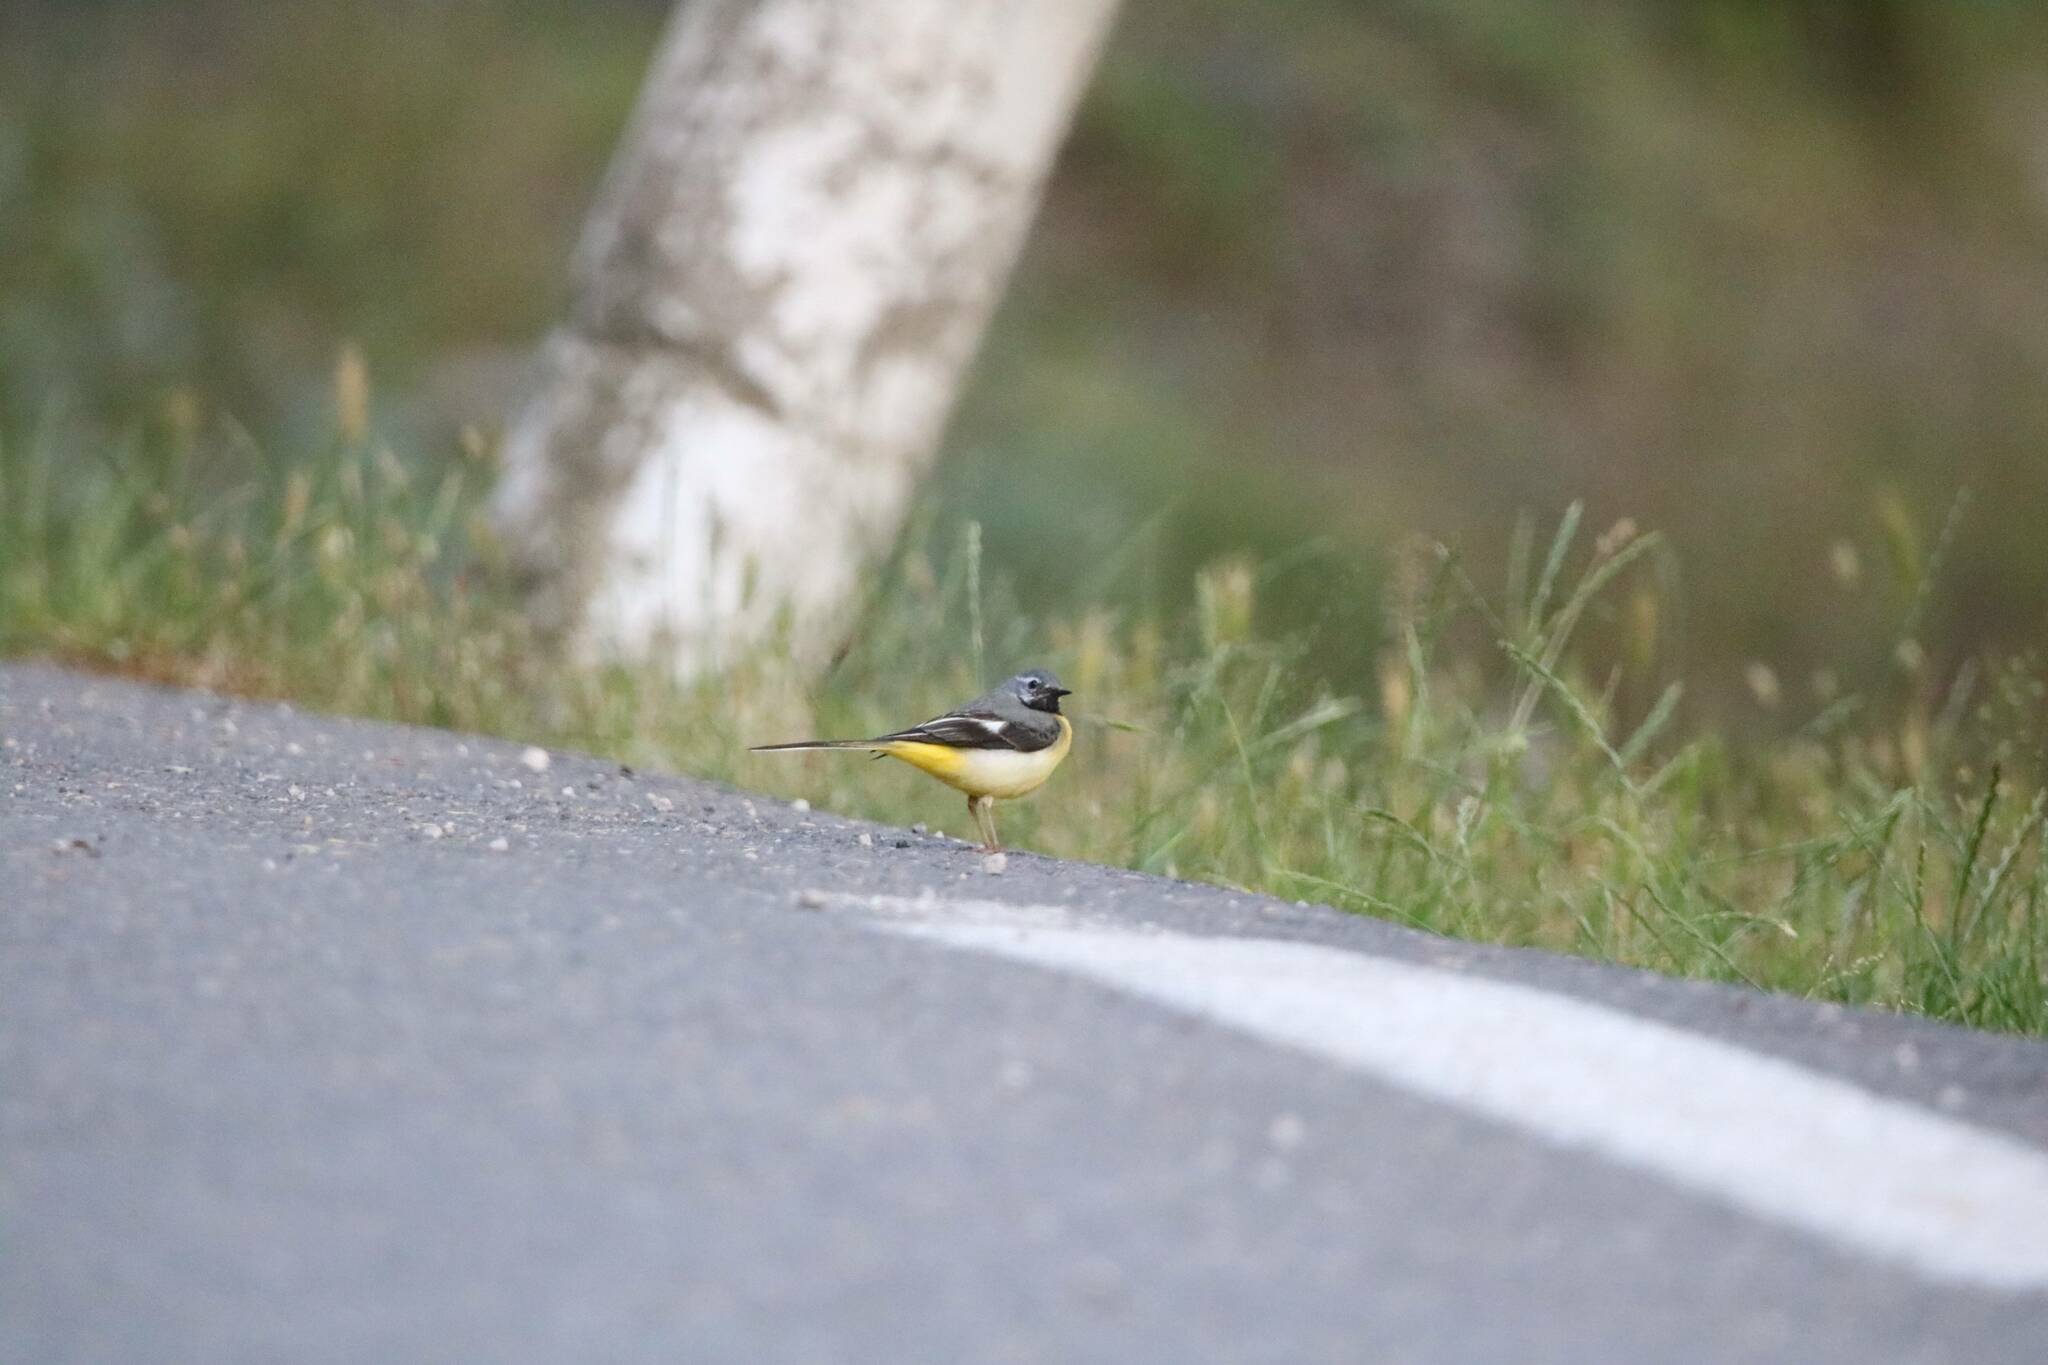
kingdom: Animalia
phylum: Chordata
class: Aves
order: Passeriformes
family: Motacillidae
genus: Motacilla
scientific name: Motacilla cinerea
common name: Grey wagtail
